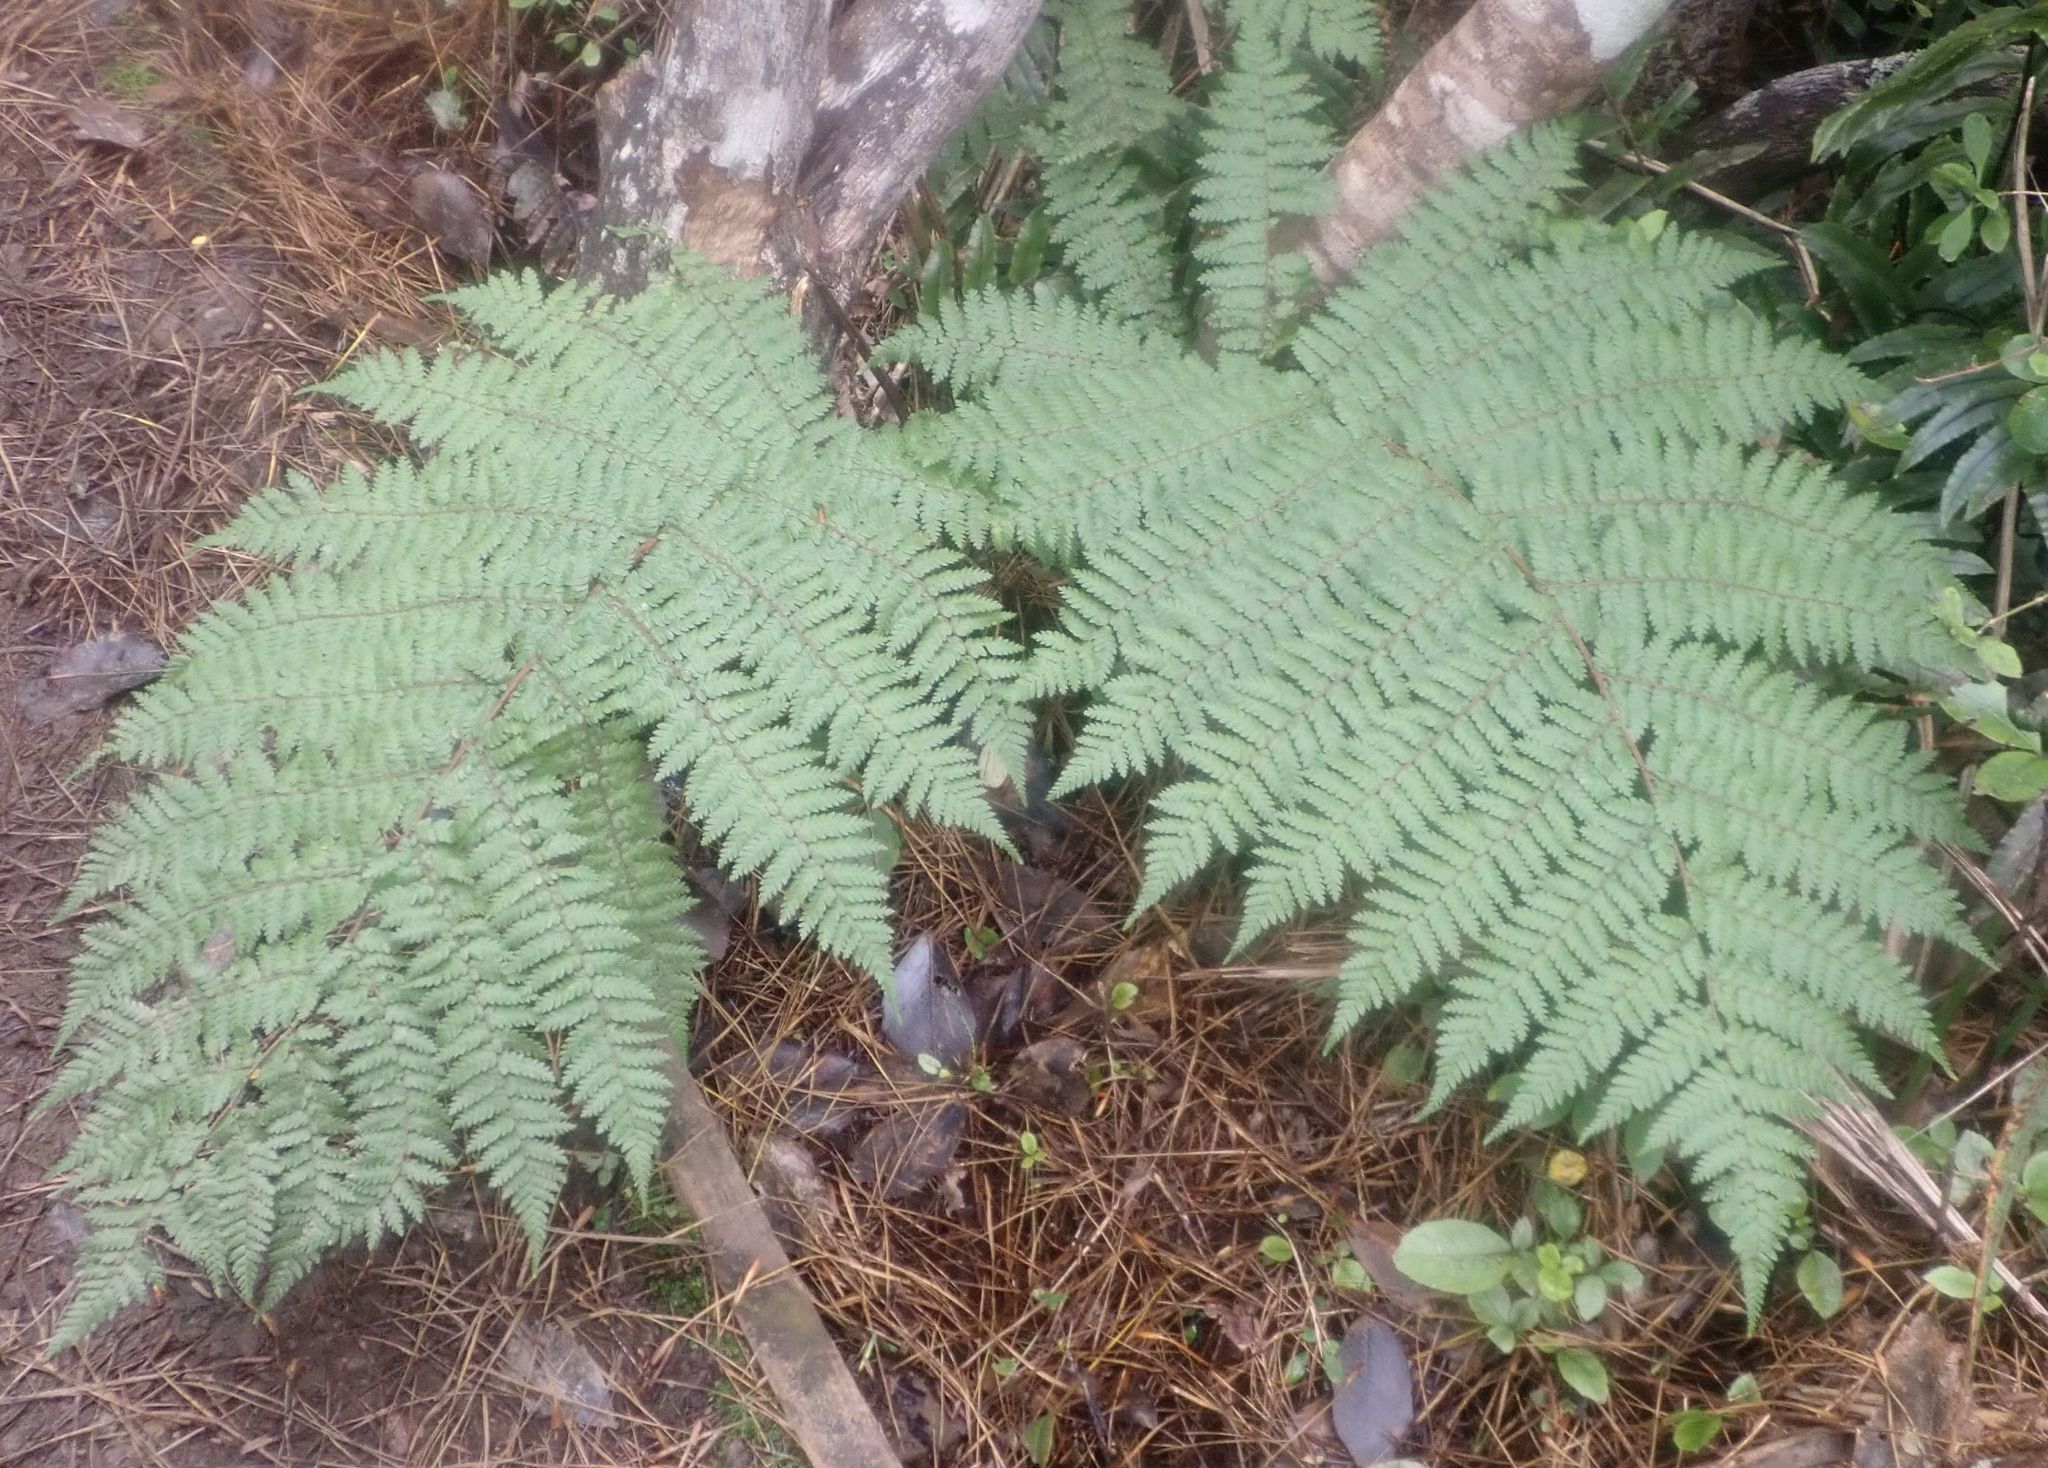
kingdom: Plantae
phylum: Tracheophyta
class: Polypodiopsida
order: Cyatheales
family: Cyatheaceae
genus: Alsophila
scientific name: Alsophila colensoi
